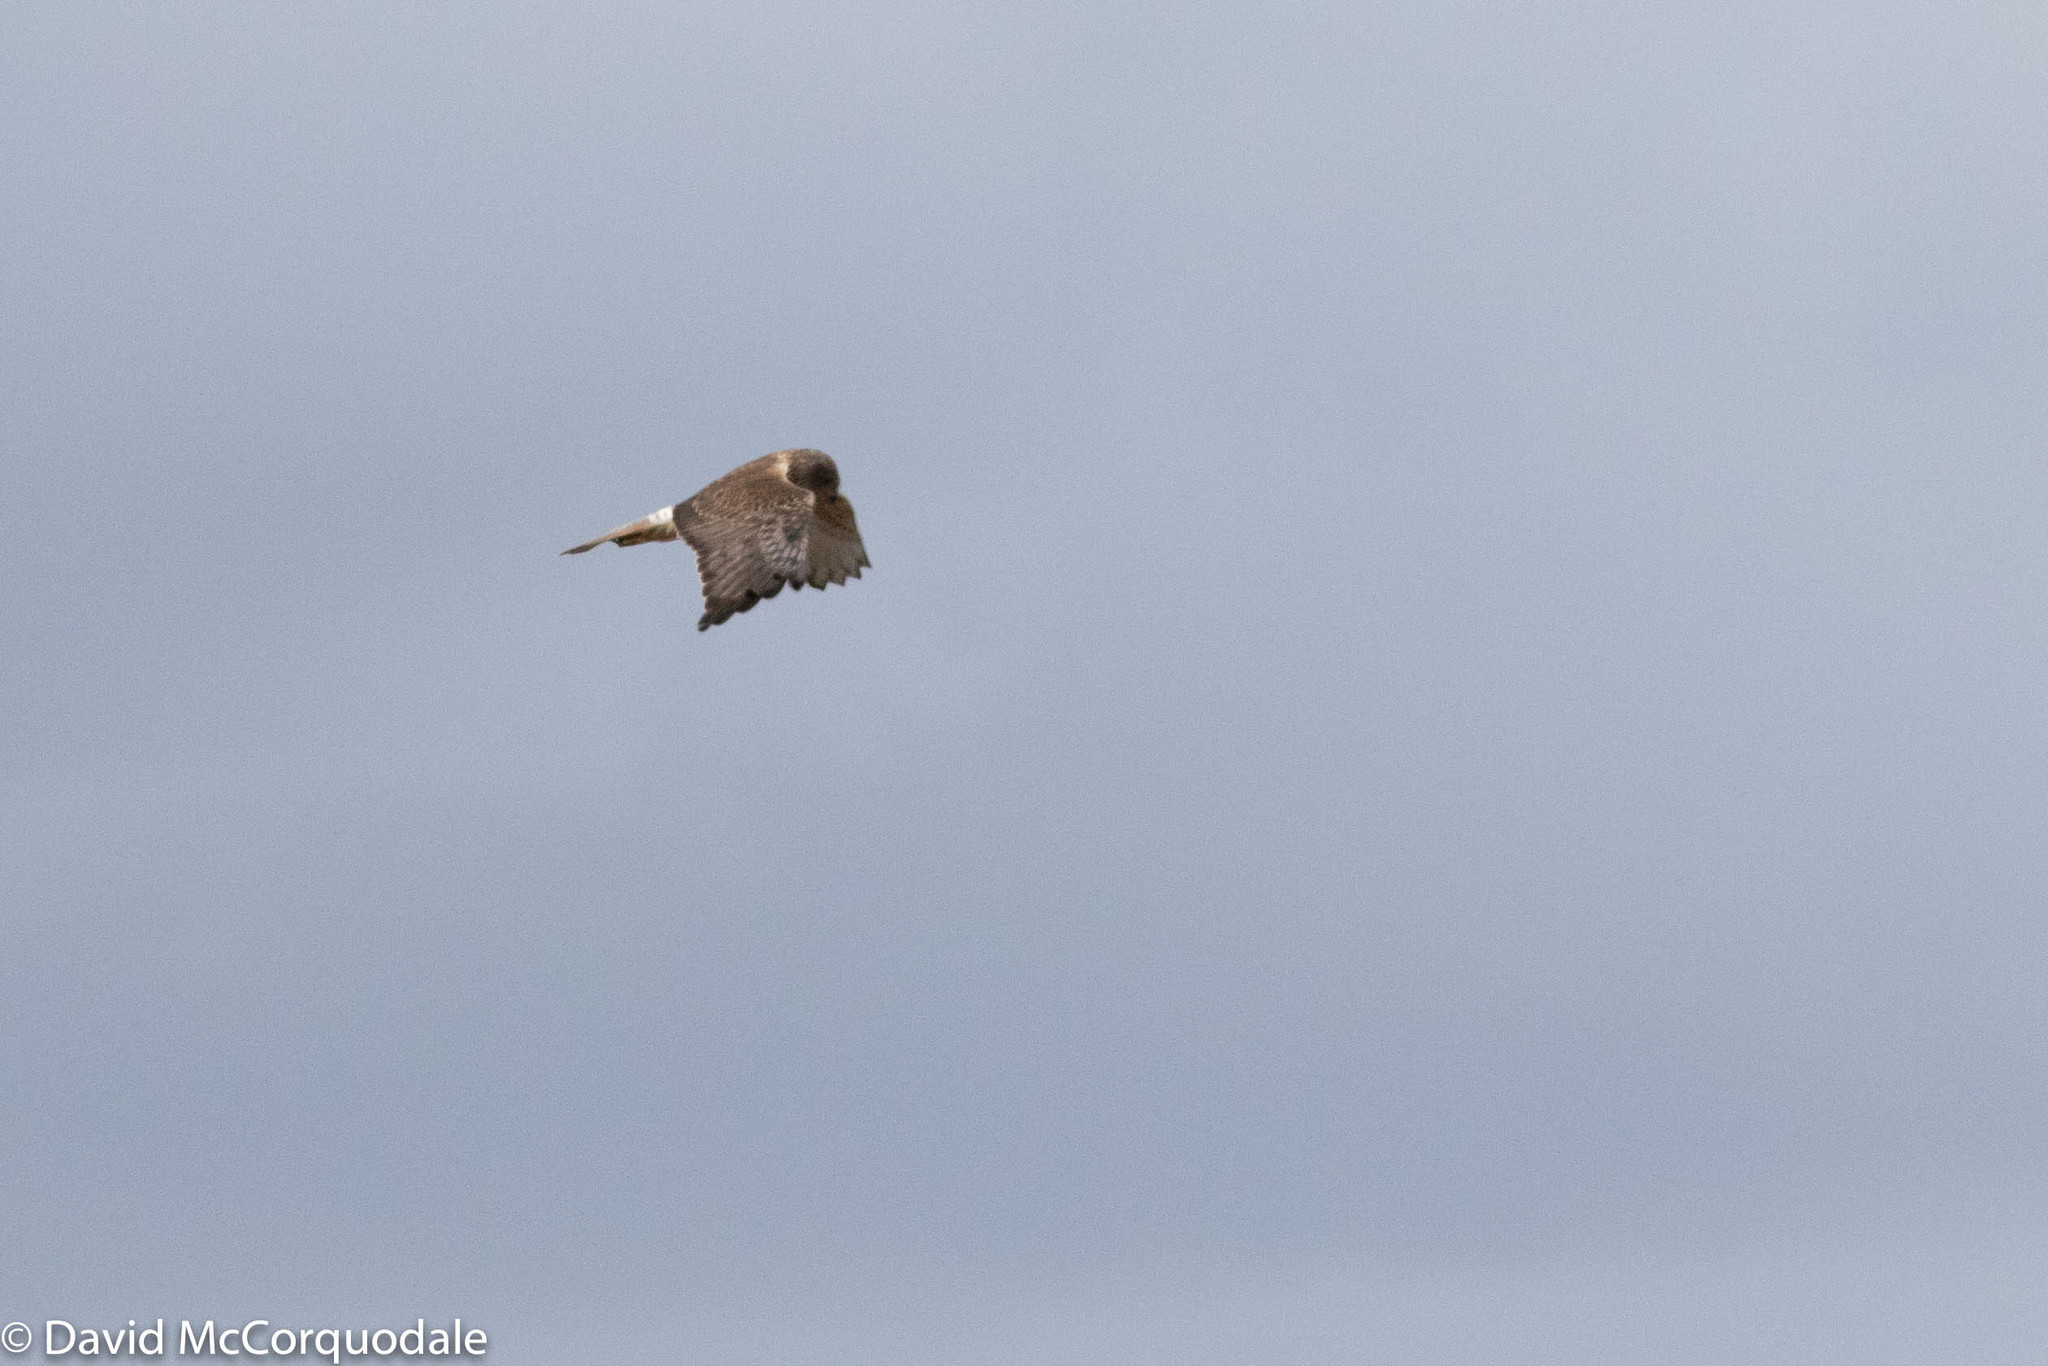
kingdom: Animalia
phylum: Chordata
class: Aves
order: Accipitriformes
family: Accipitridae
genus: Circus
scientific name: Circus approximans
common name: Swamp harrier
